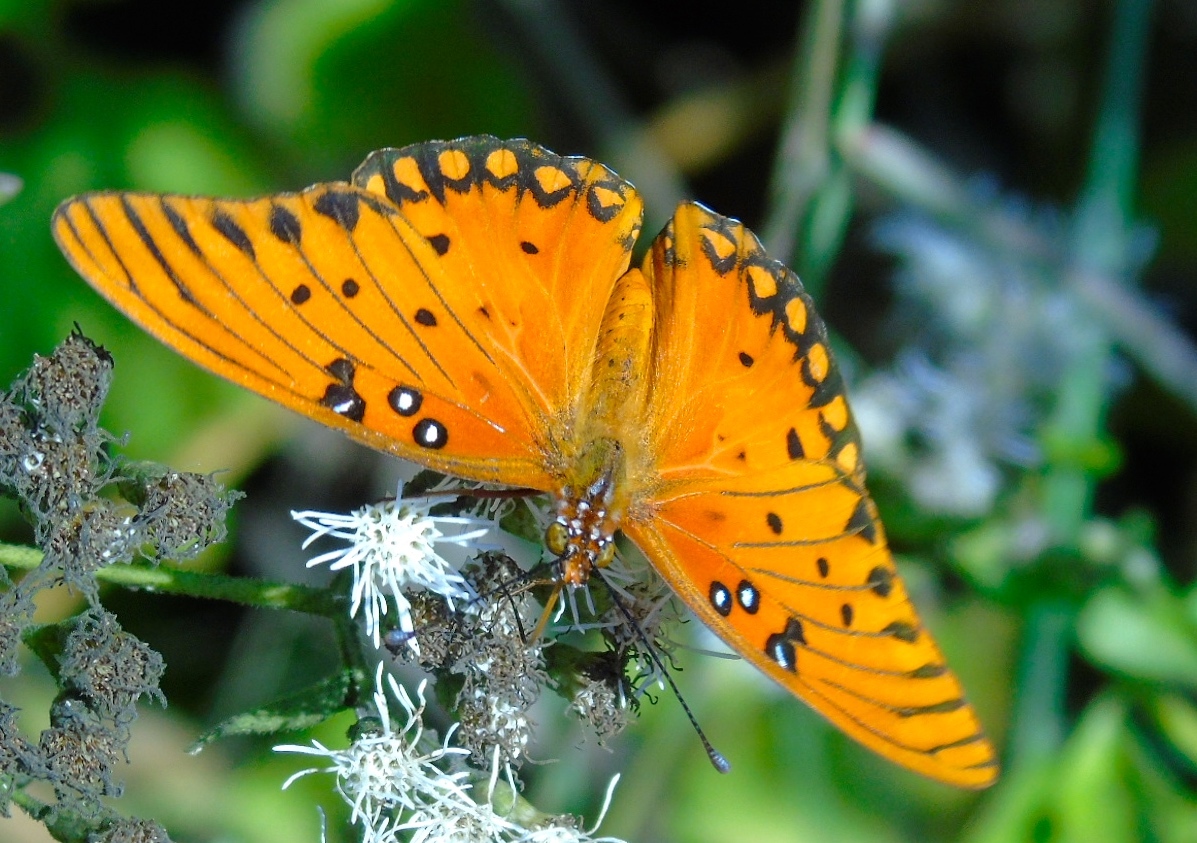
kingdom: Animalia
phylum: Arthropoda
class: Insecta
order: Lepidoptera
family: Nymphalidae
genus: Dione
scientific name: Dione vanillae
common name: Gulf fritillary
